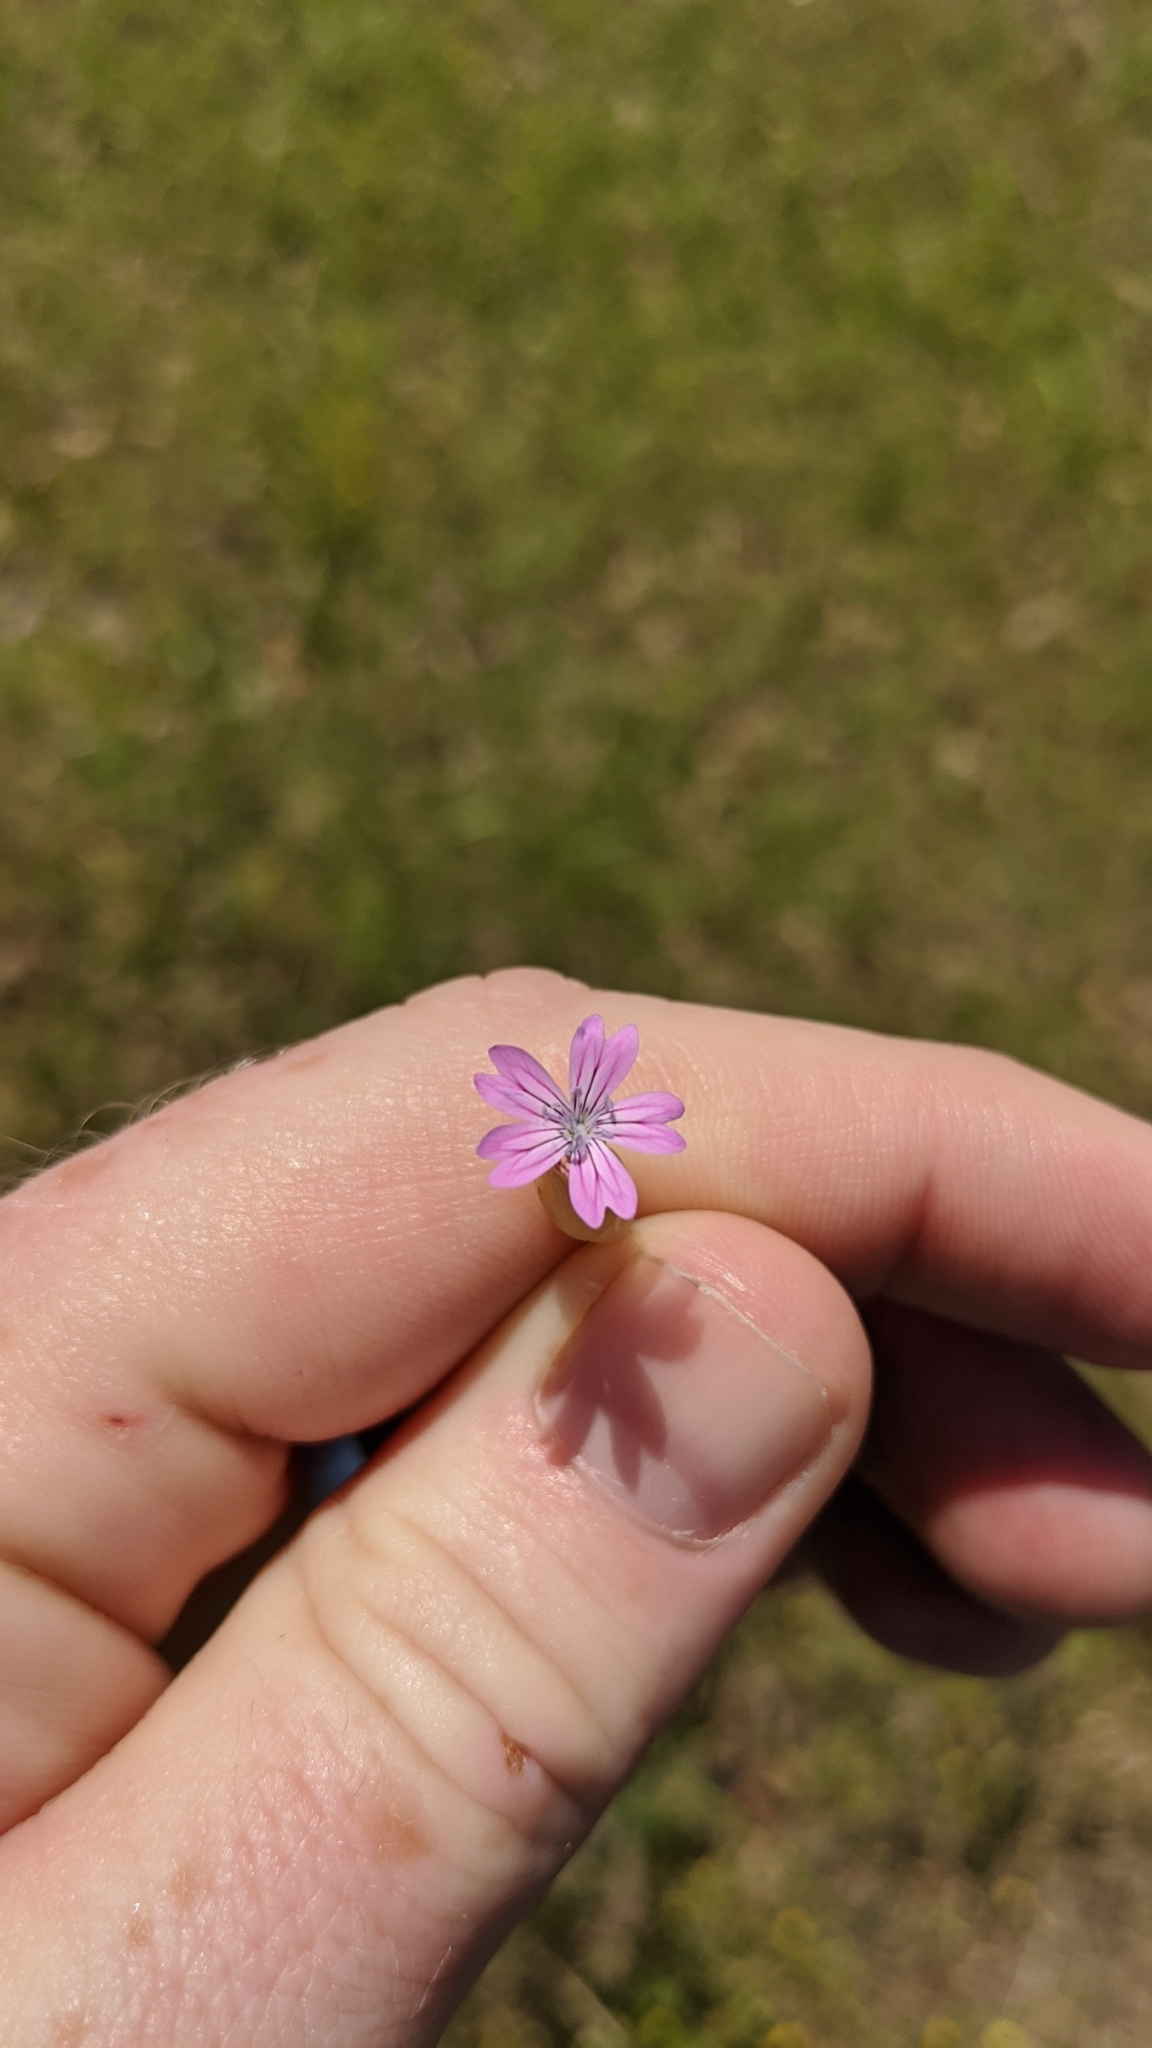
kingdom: Plantae
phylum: Tracheophyta
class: Magnoliopsida
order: Caryophyllales
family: Caryophyllaceae
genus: Petrorhagia
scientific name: Petrorhagia dubia
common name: Hairypink
